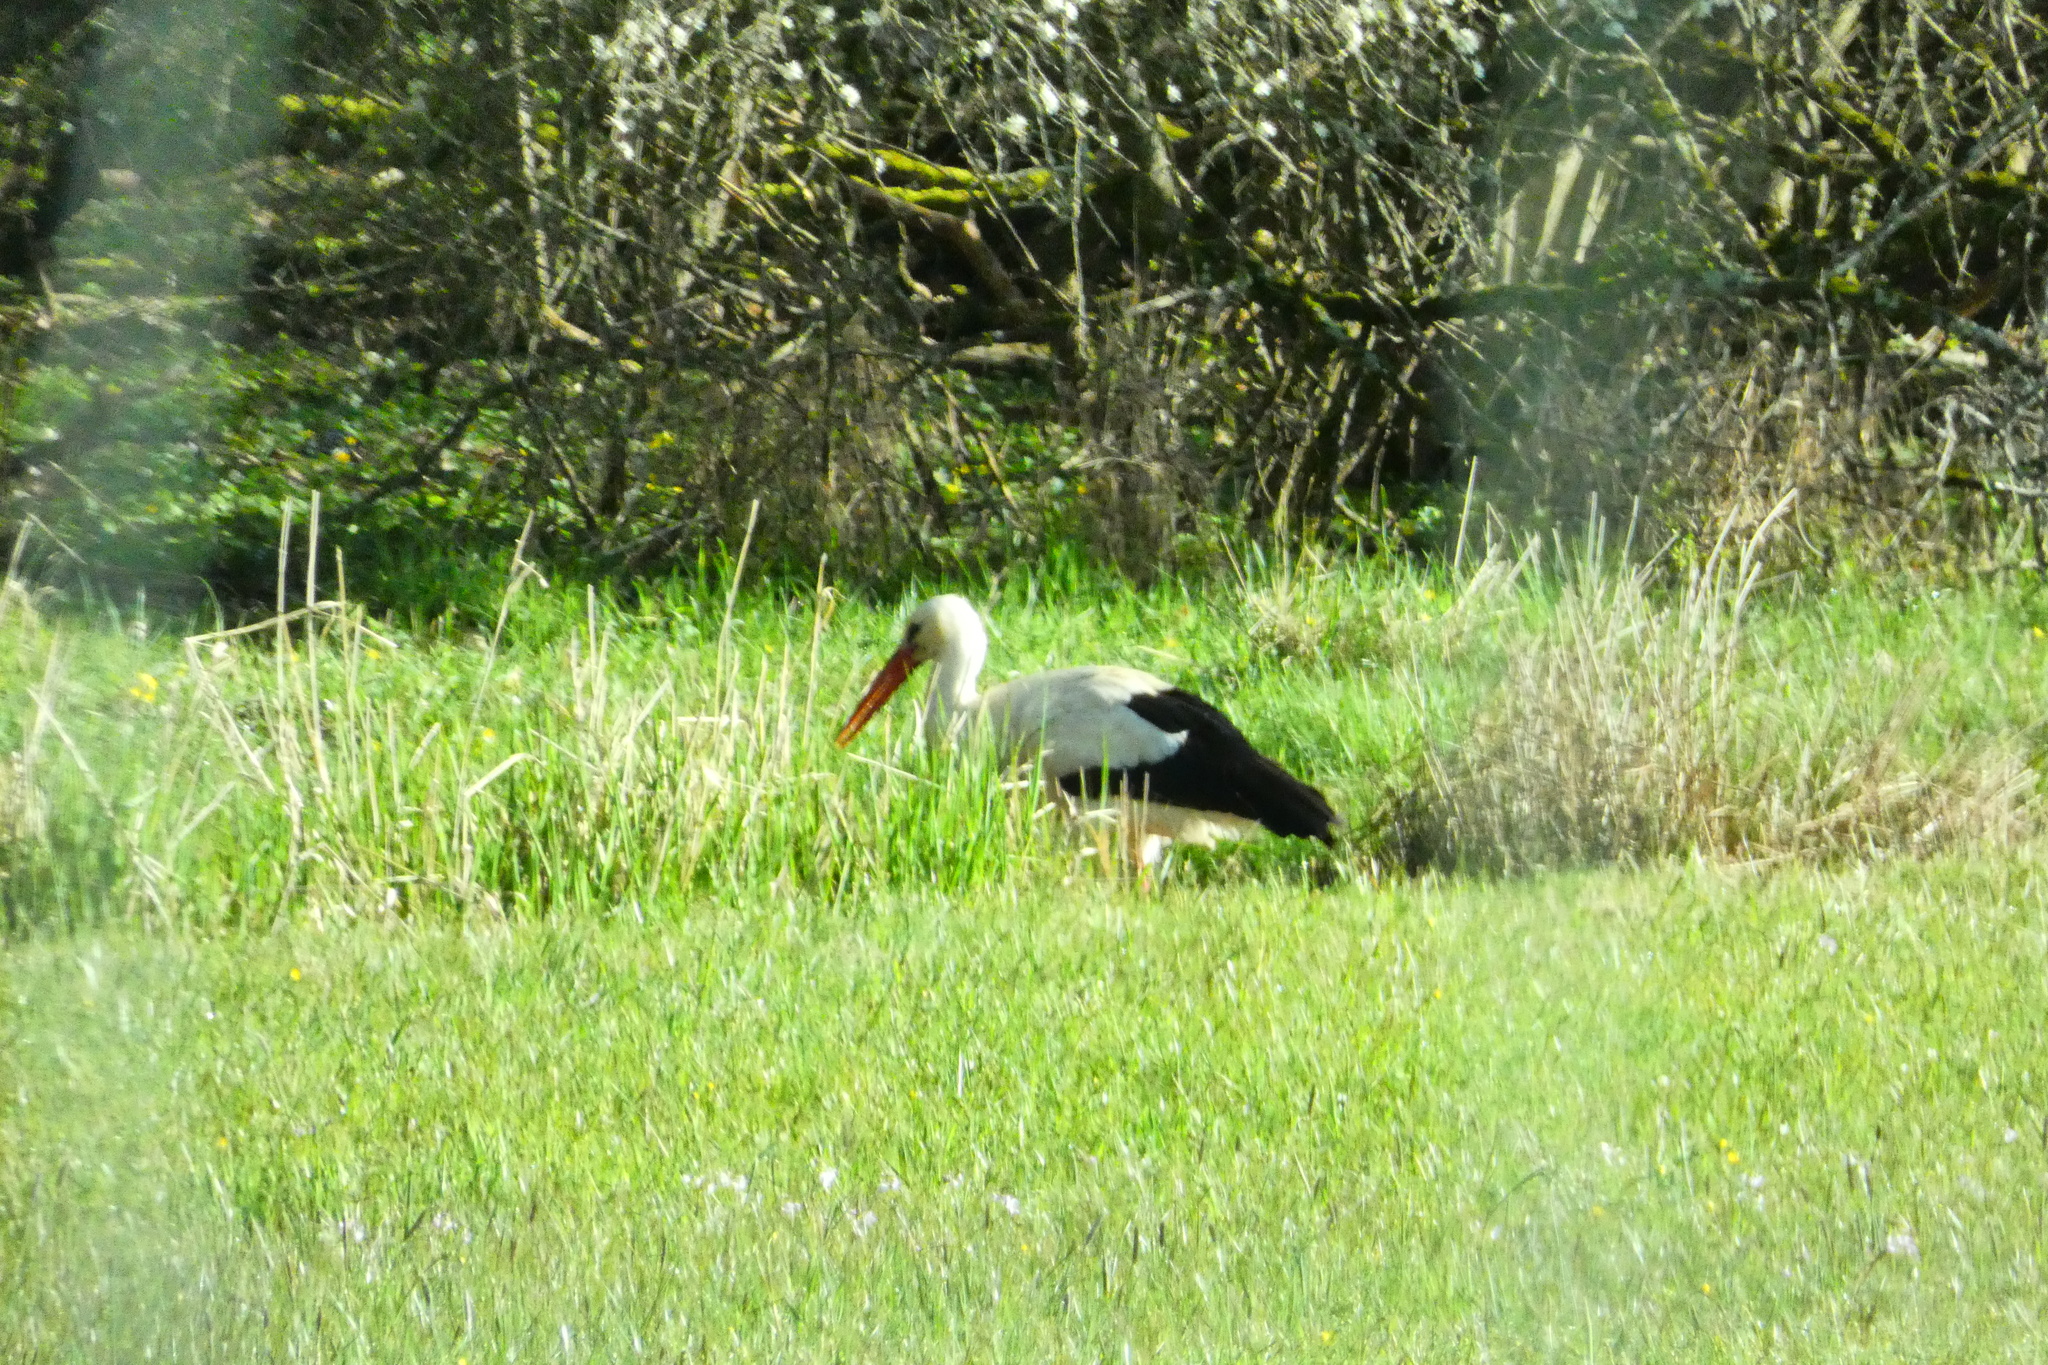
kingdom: Animalia
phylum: Chordata
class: Aves
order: Ciconiiformes
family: Ciconiidae
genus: Ciconia
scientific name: Ciconia ciconia
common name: White stork
